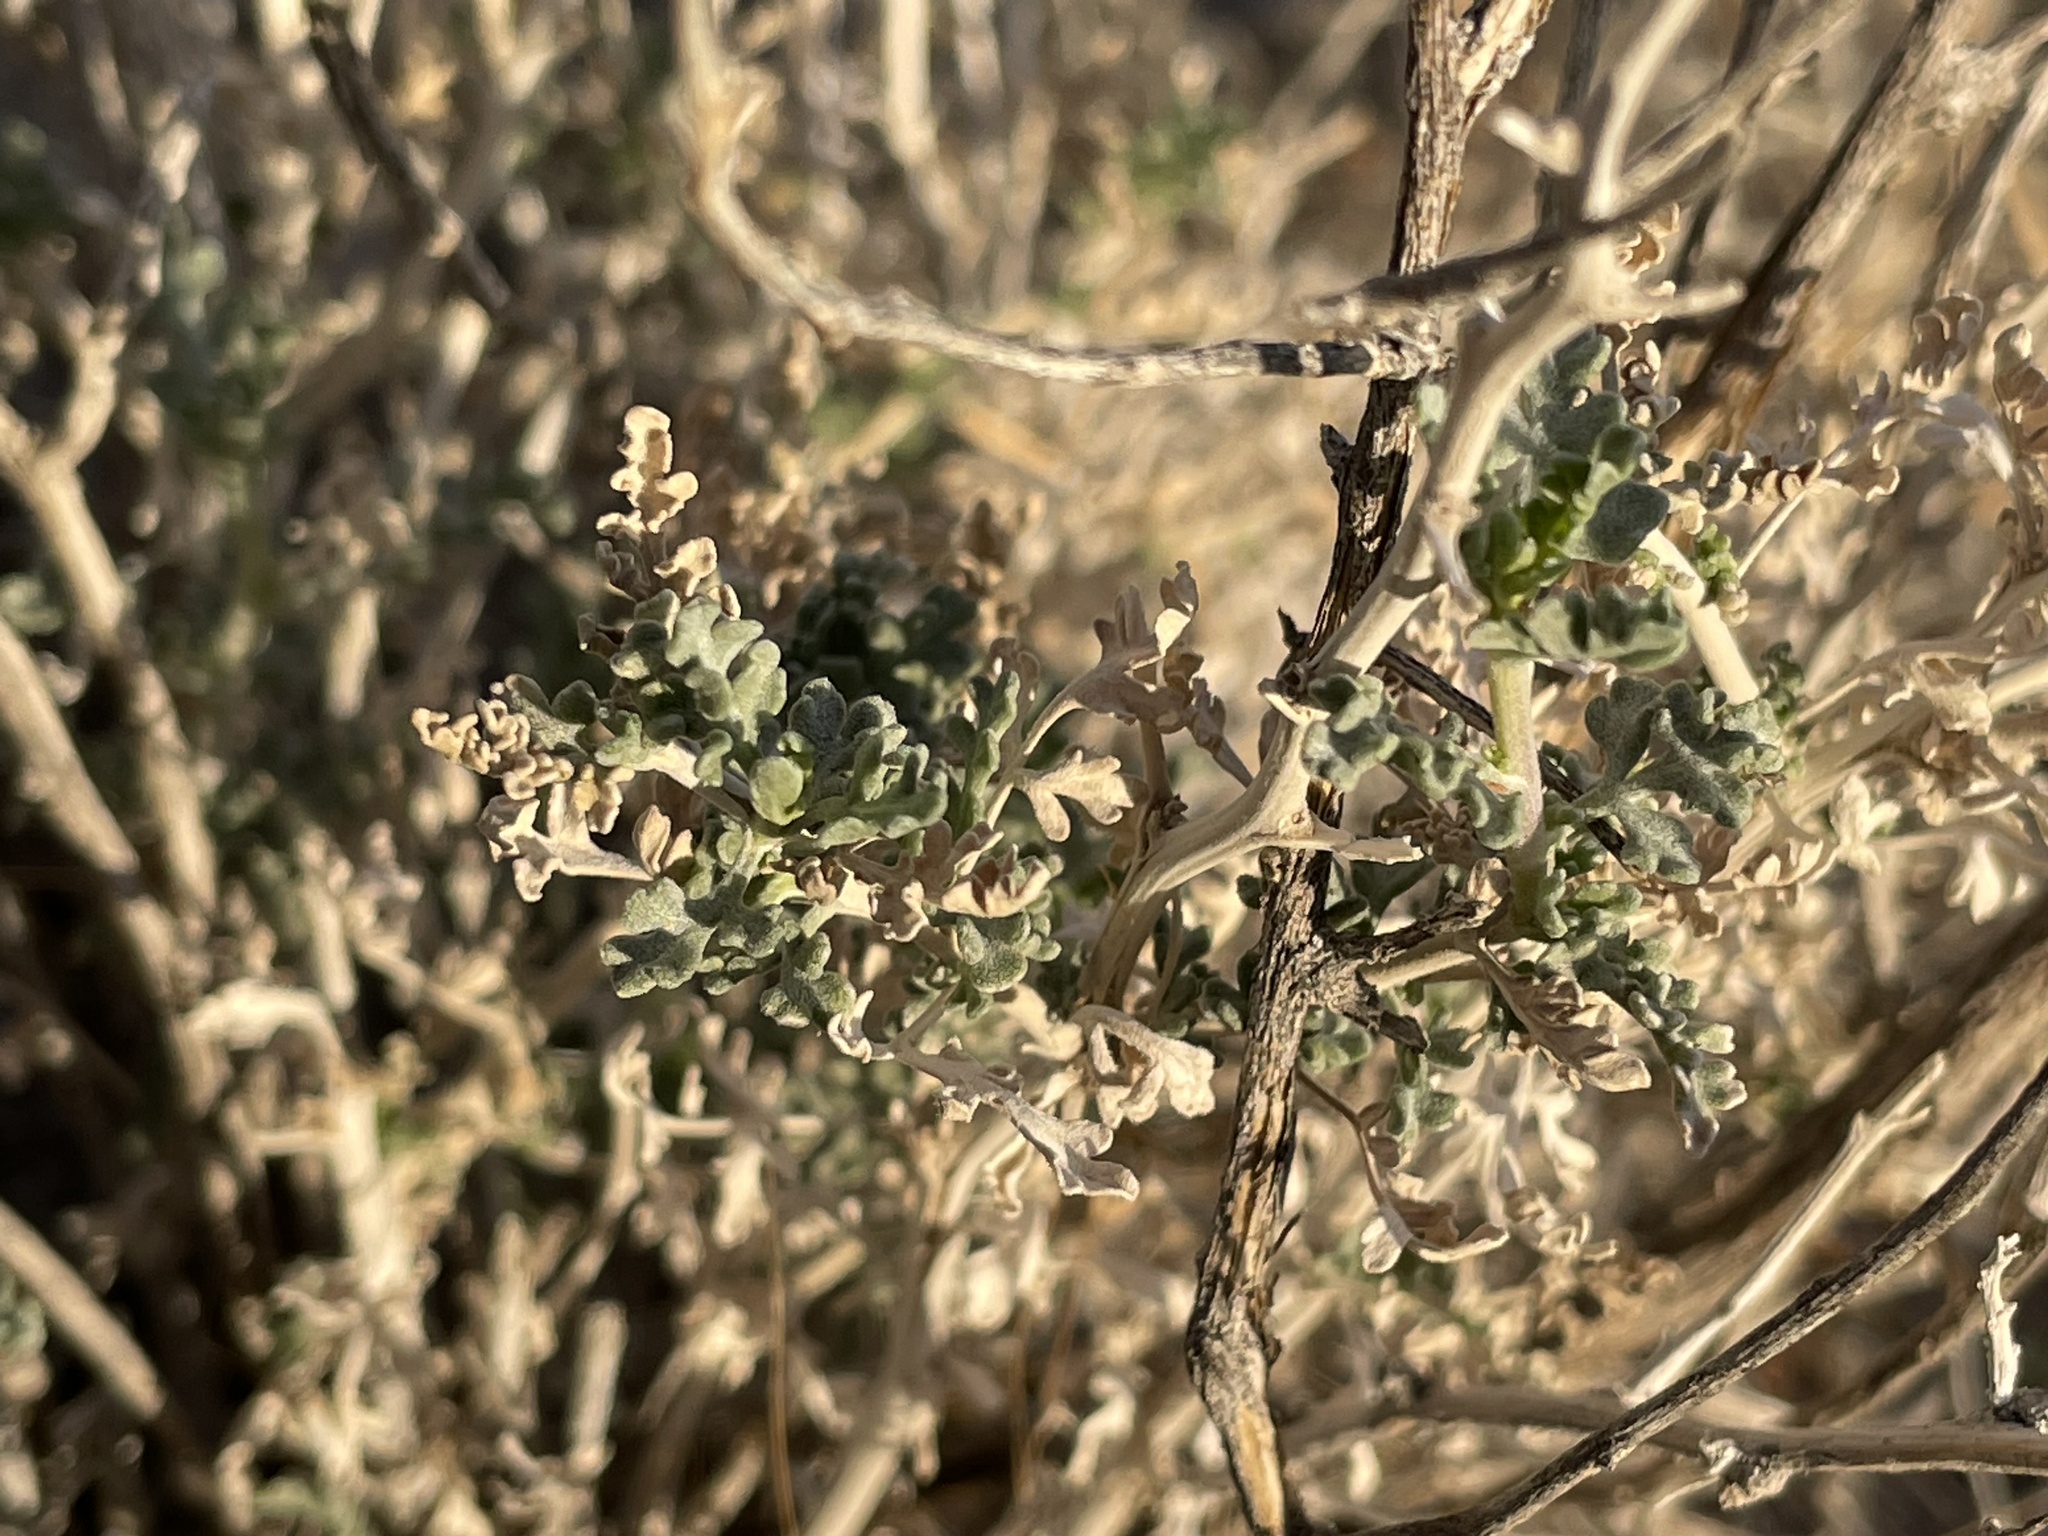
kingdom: Plantae
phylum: Tracheophyta
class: Magnoliopsida
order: Asterales
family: Asteraceae
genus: Ambrosia
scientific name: Ambrosia dumosa
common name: Bur-sage
